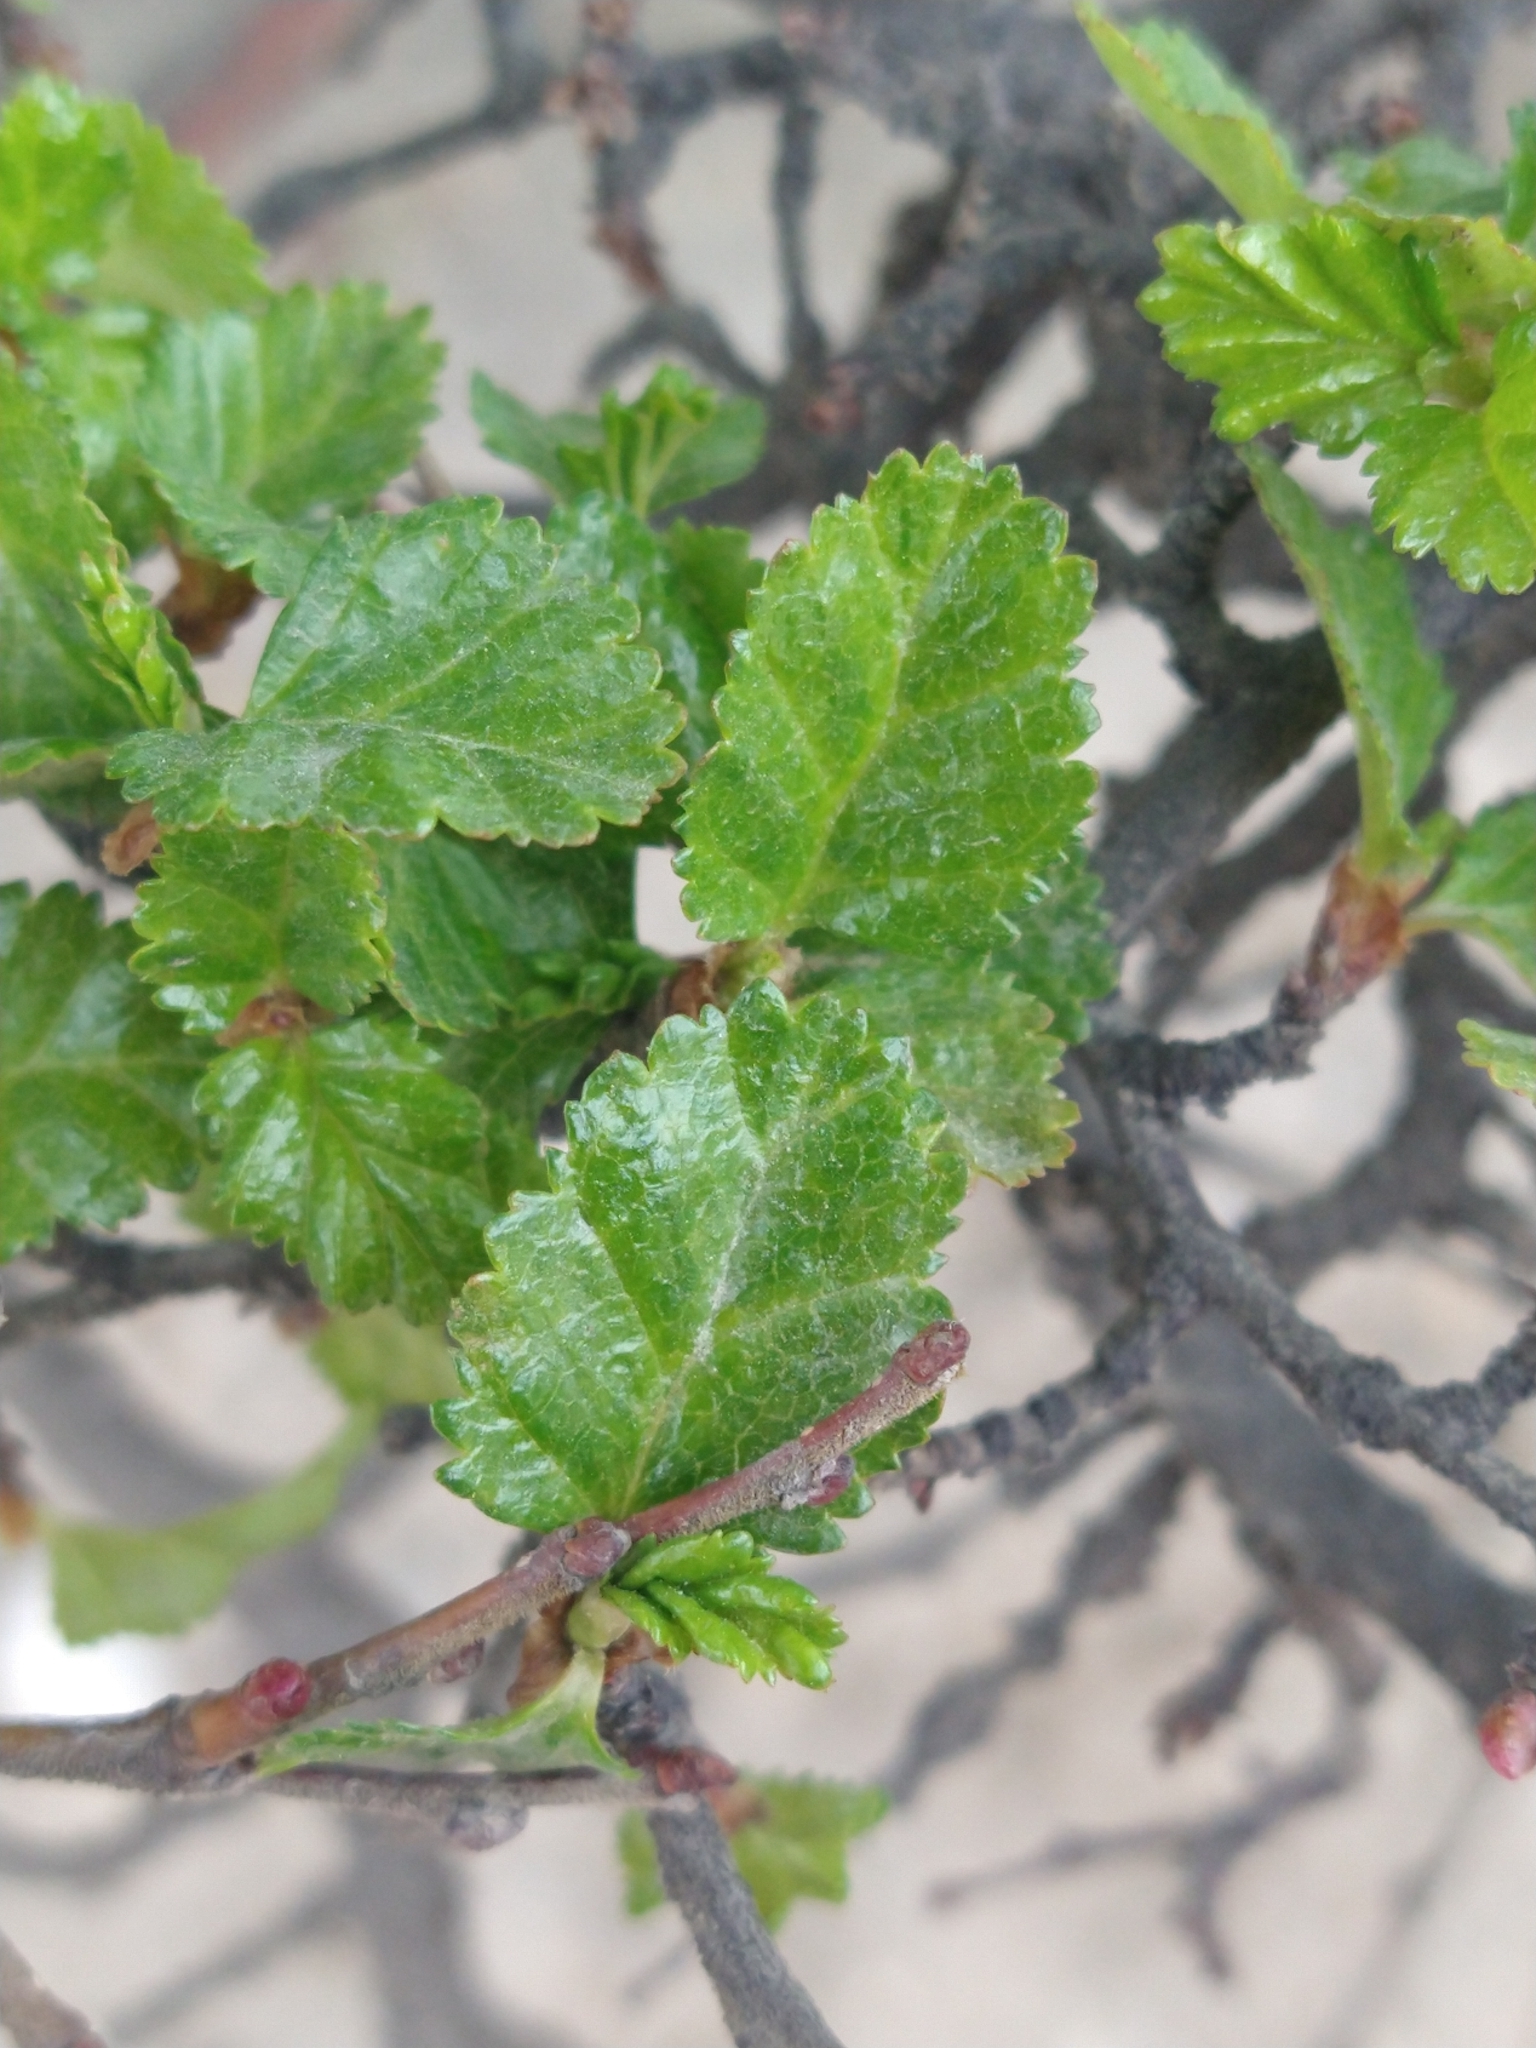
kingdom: Plantae
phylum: Tracheophyta
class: Magnoliopsida
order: Fagales
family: Nothofagaceae
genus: Nothofagus
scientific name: Nothofagus antarctica
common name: Antarctic beech
